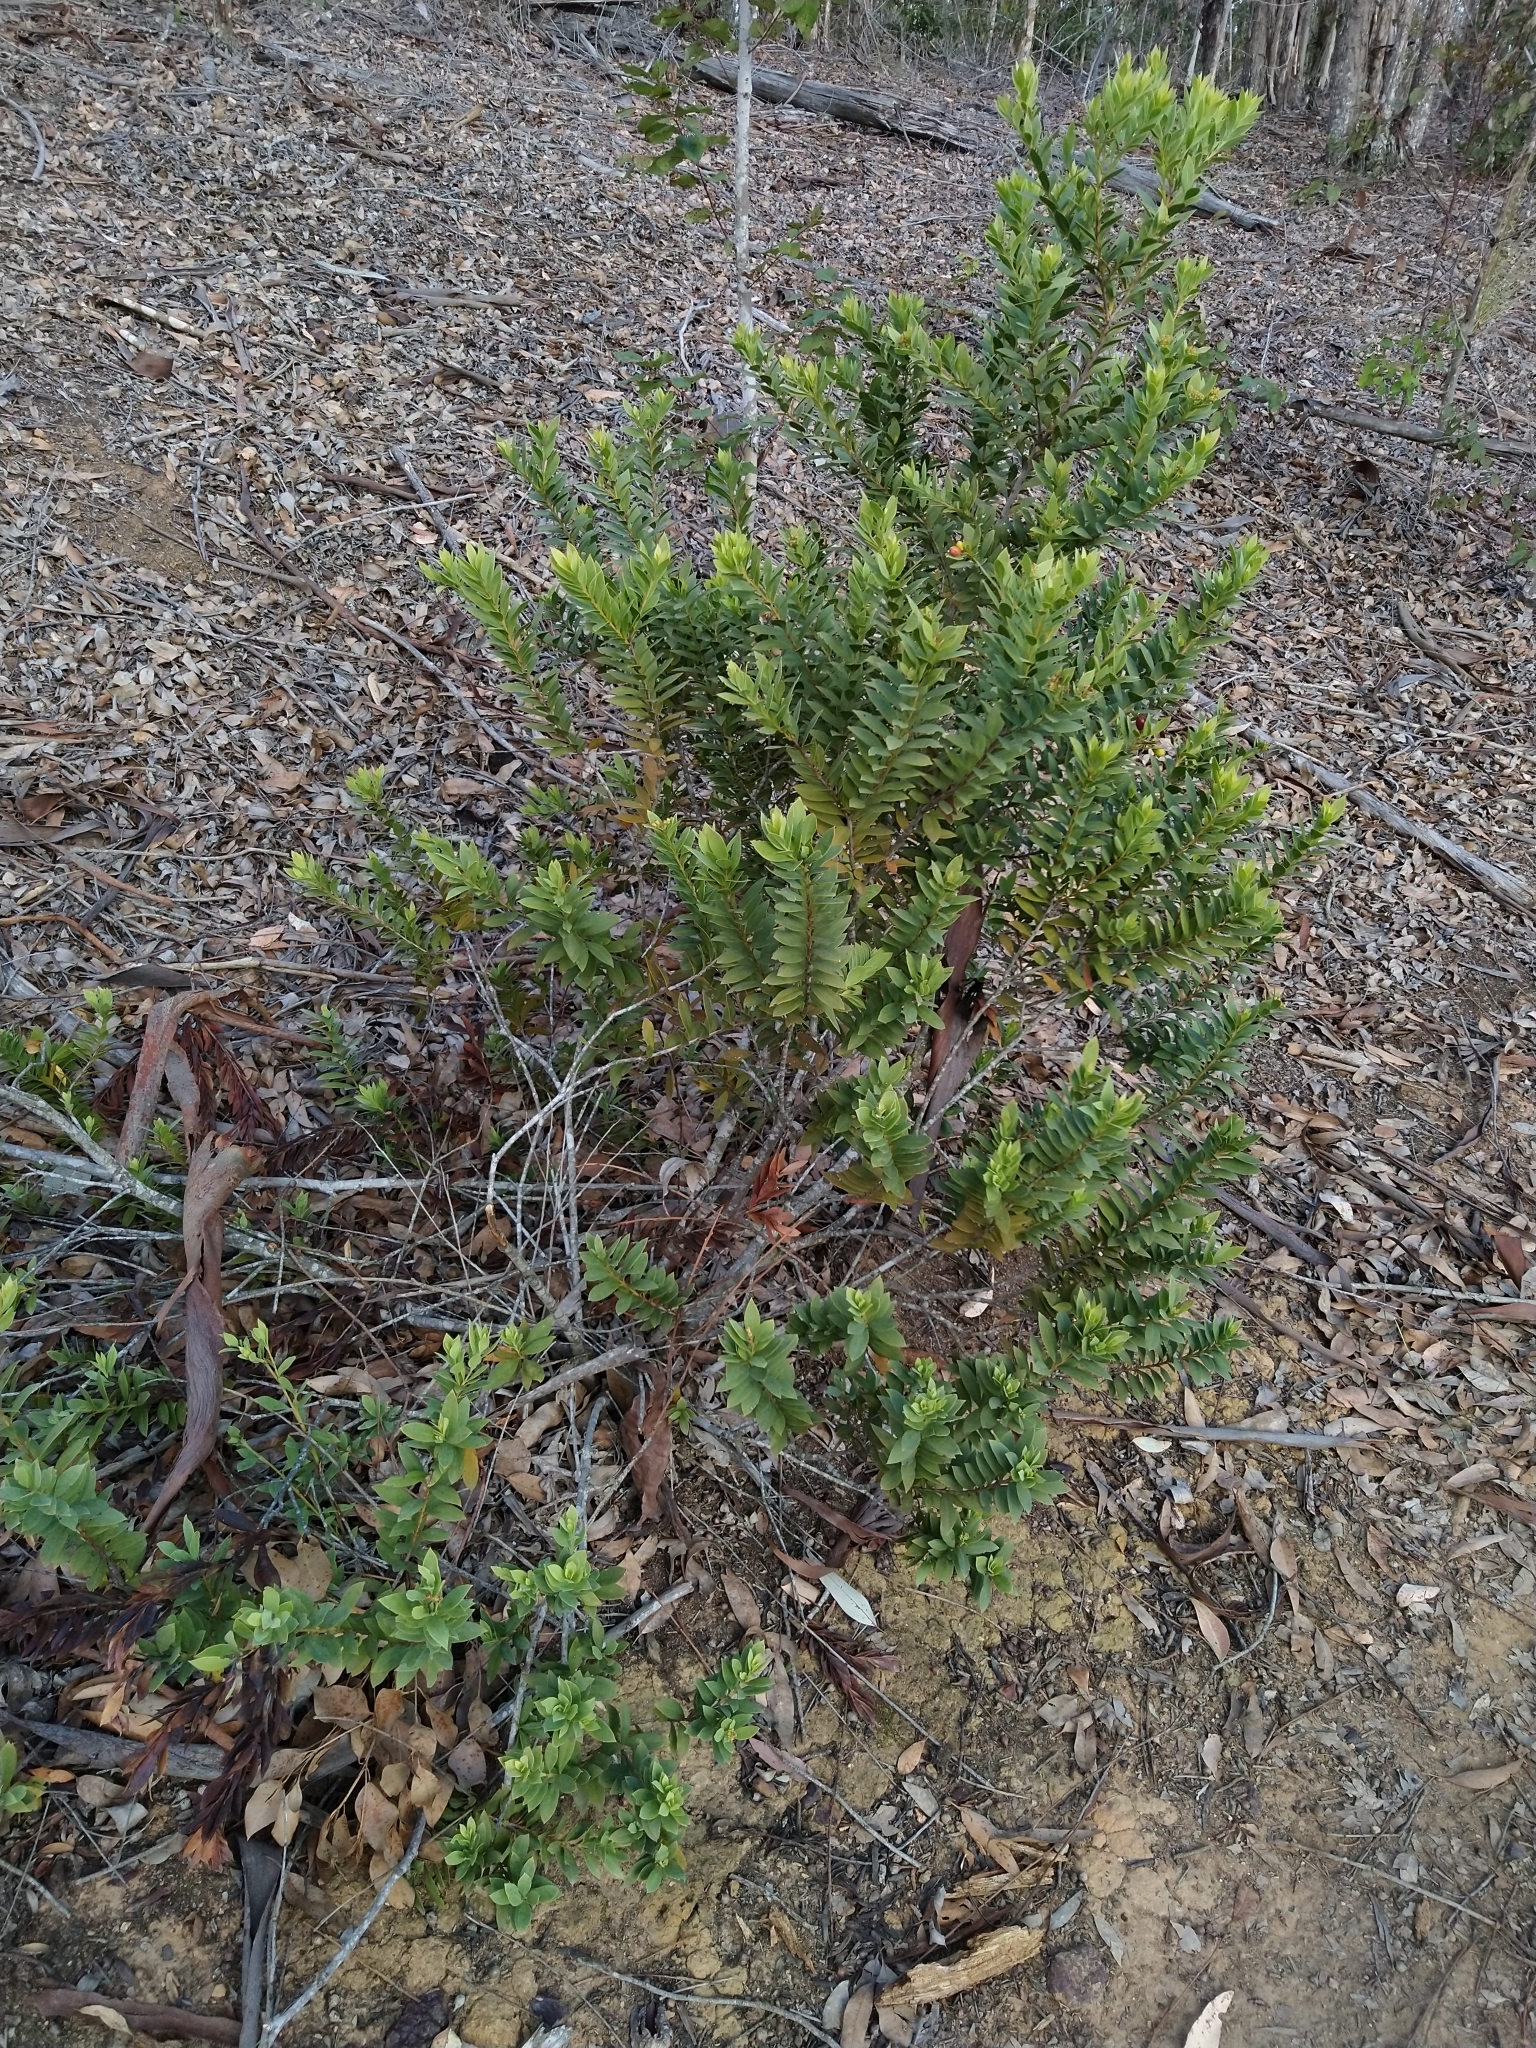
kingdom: Plantae
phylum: Tracheophyta
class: Magnoliopsida
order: Santalales
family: Santalaceae
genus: Osyris
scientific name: Osyris compressa
